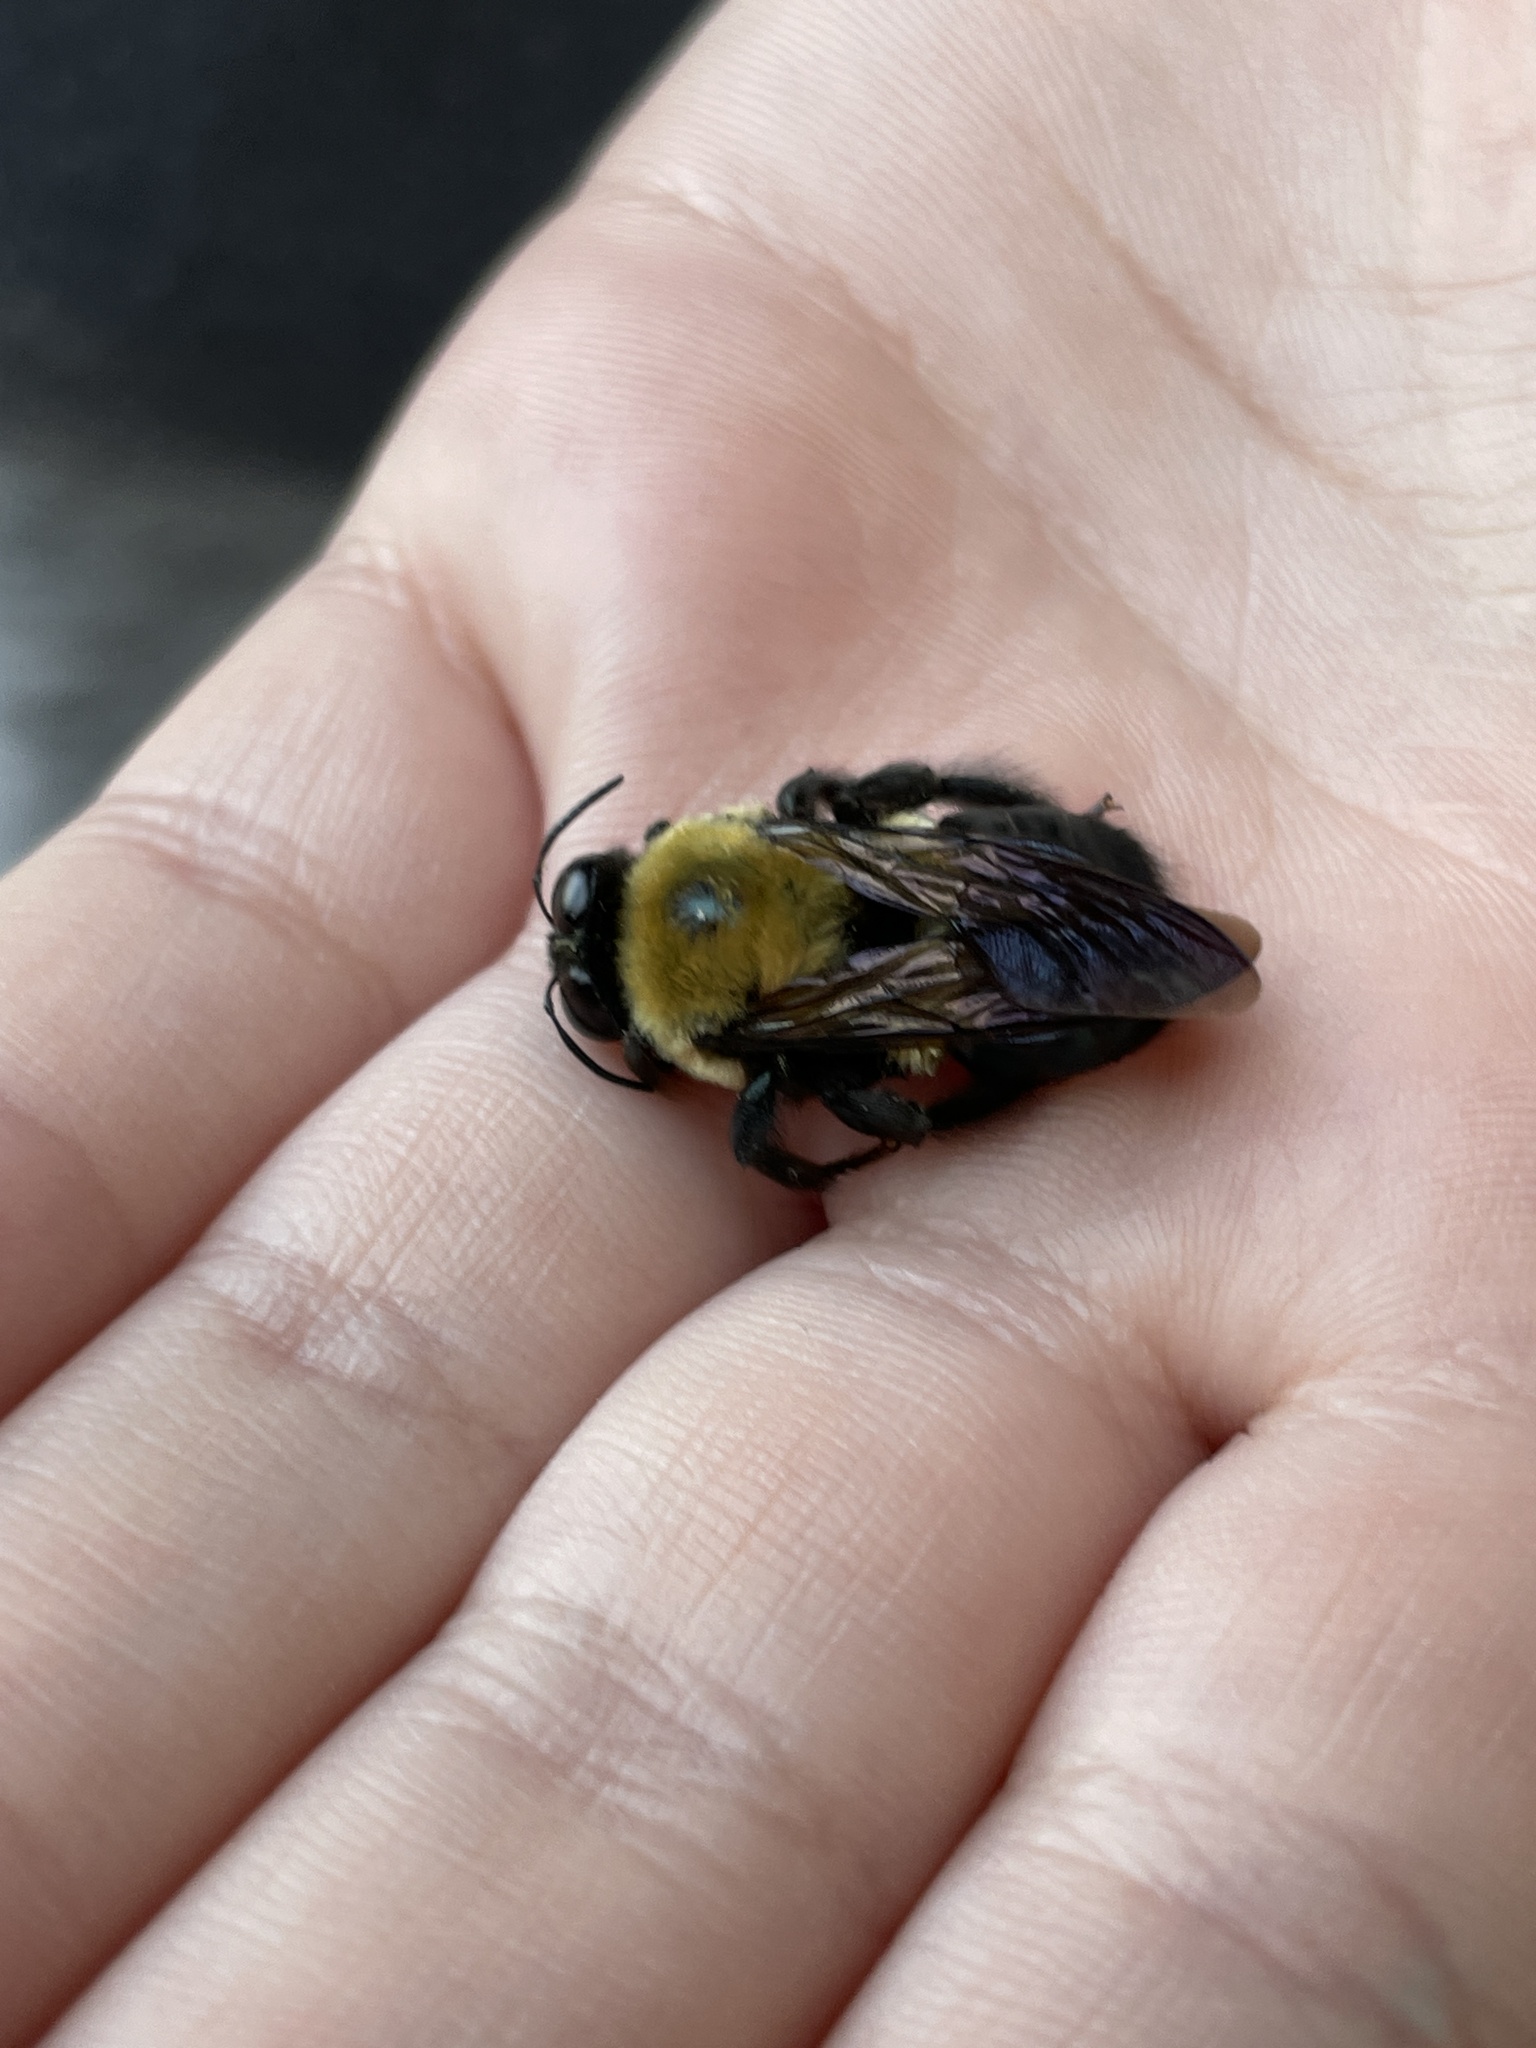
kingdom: Animalia
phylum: Arthropoda
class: Insecta
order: Hymenoptera
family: Apidae
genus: Xylocopa
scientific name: Xylocopa virginica
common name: Carpenter bee
